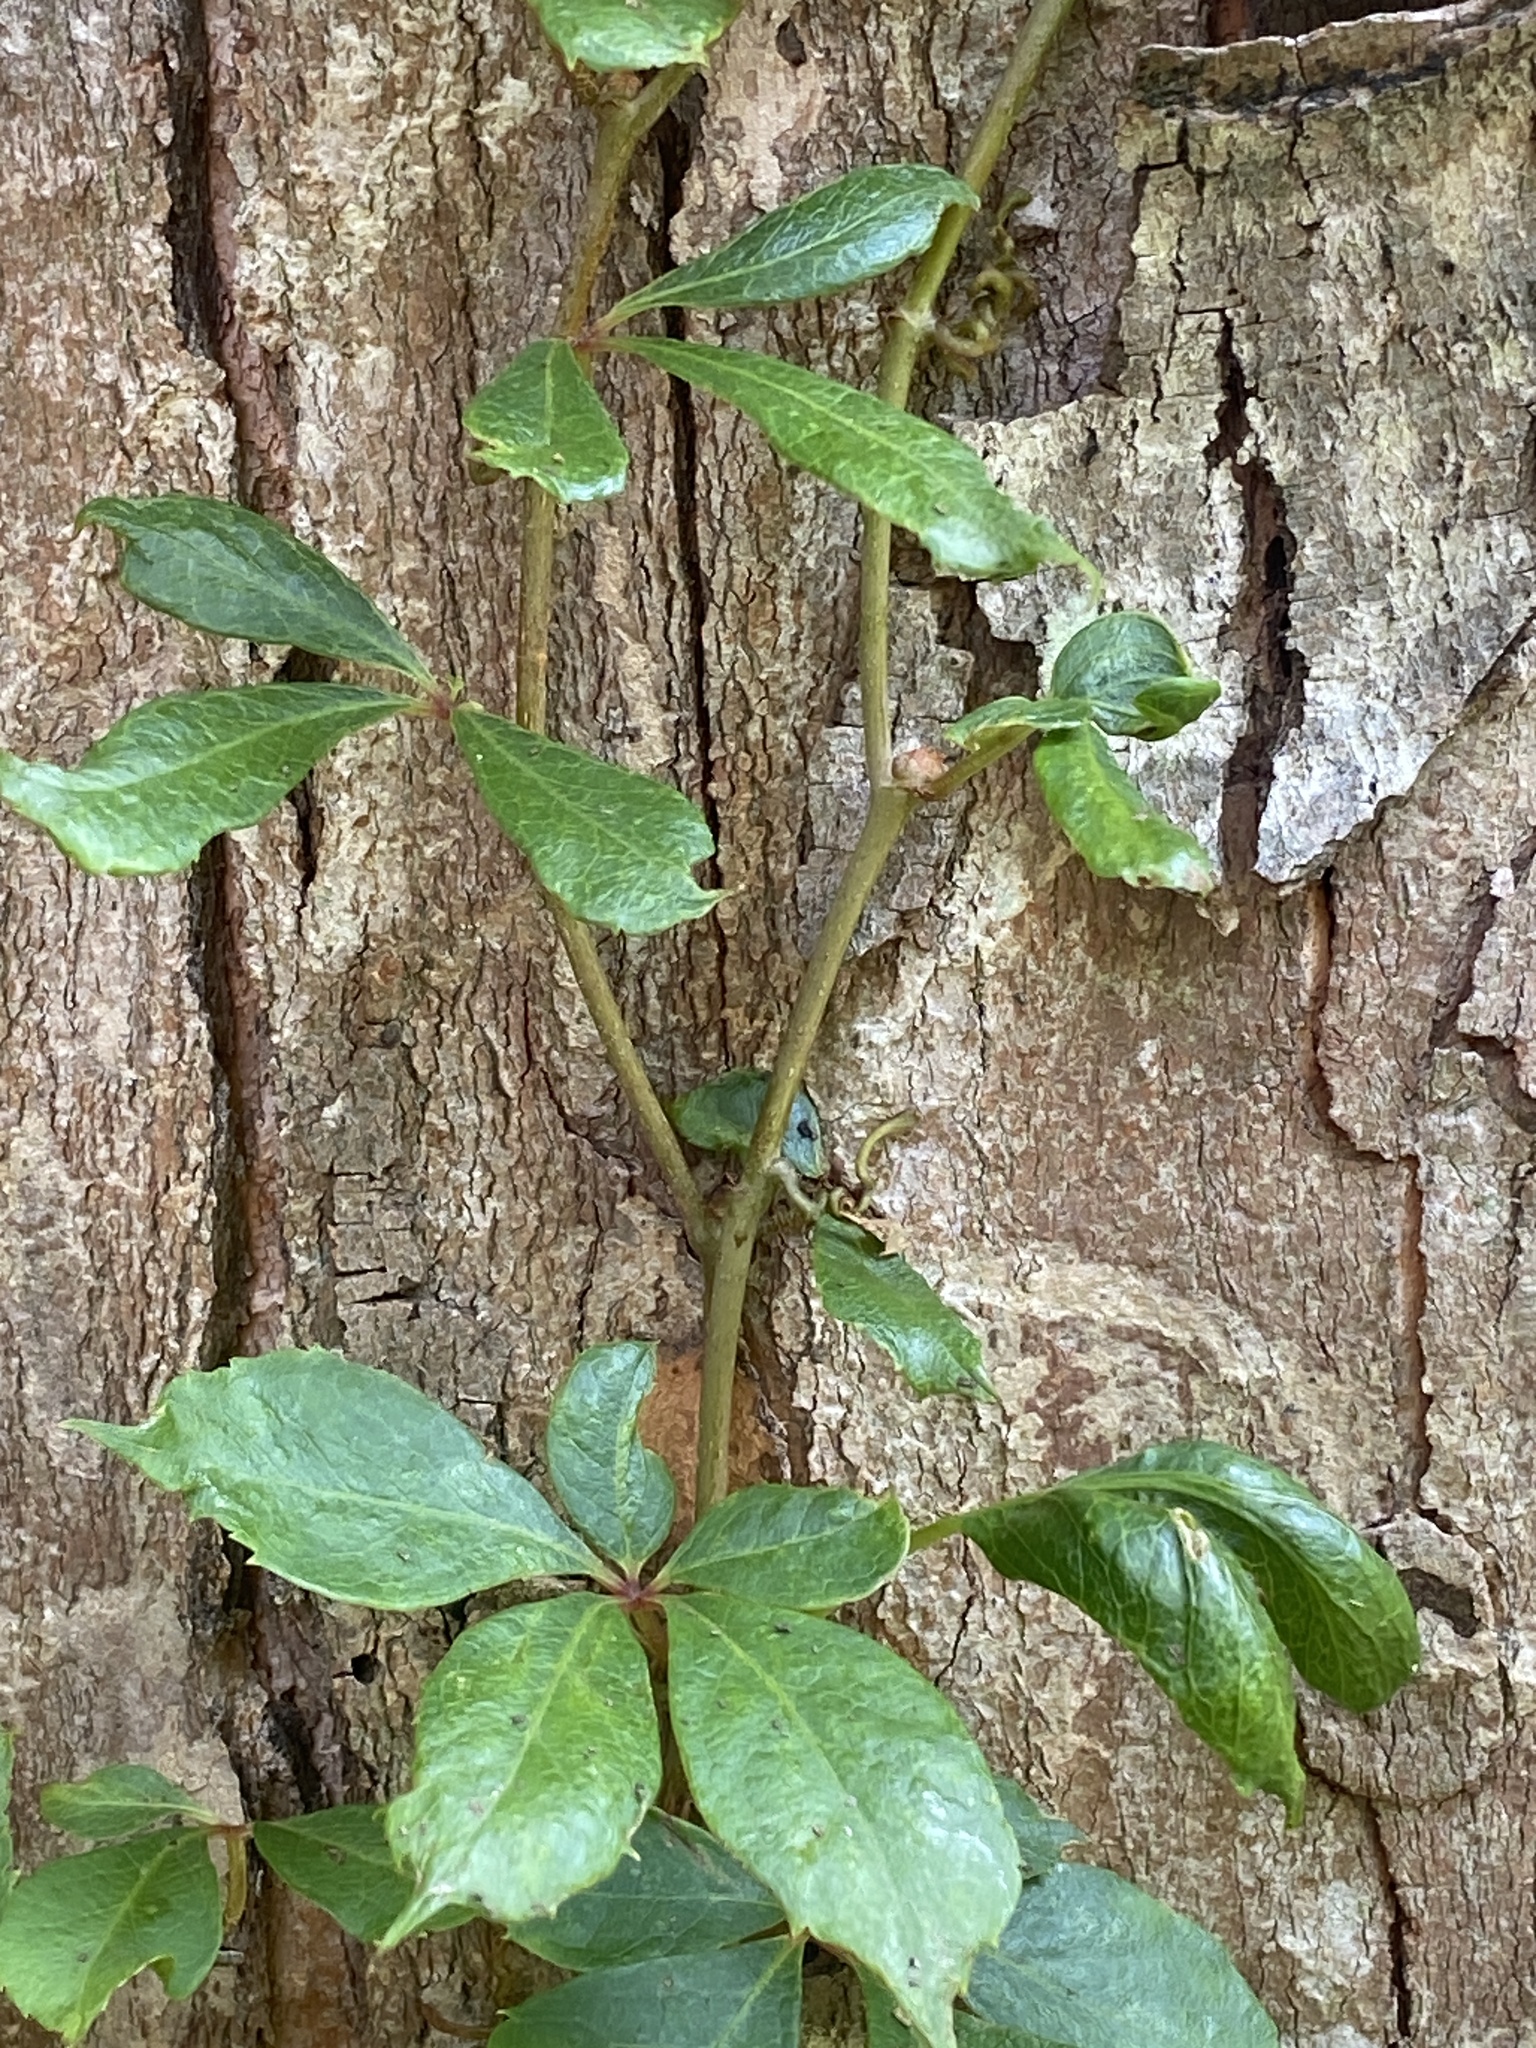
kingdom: Plantae
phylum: Tracheophyta
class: Magnoliopsida
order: Vitales
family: Vitaceae
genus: Parthenocissus
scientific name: Parthenocissus quinquefolia
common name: Virginia-creeper
